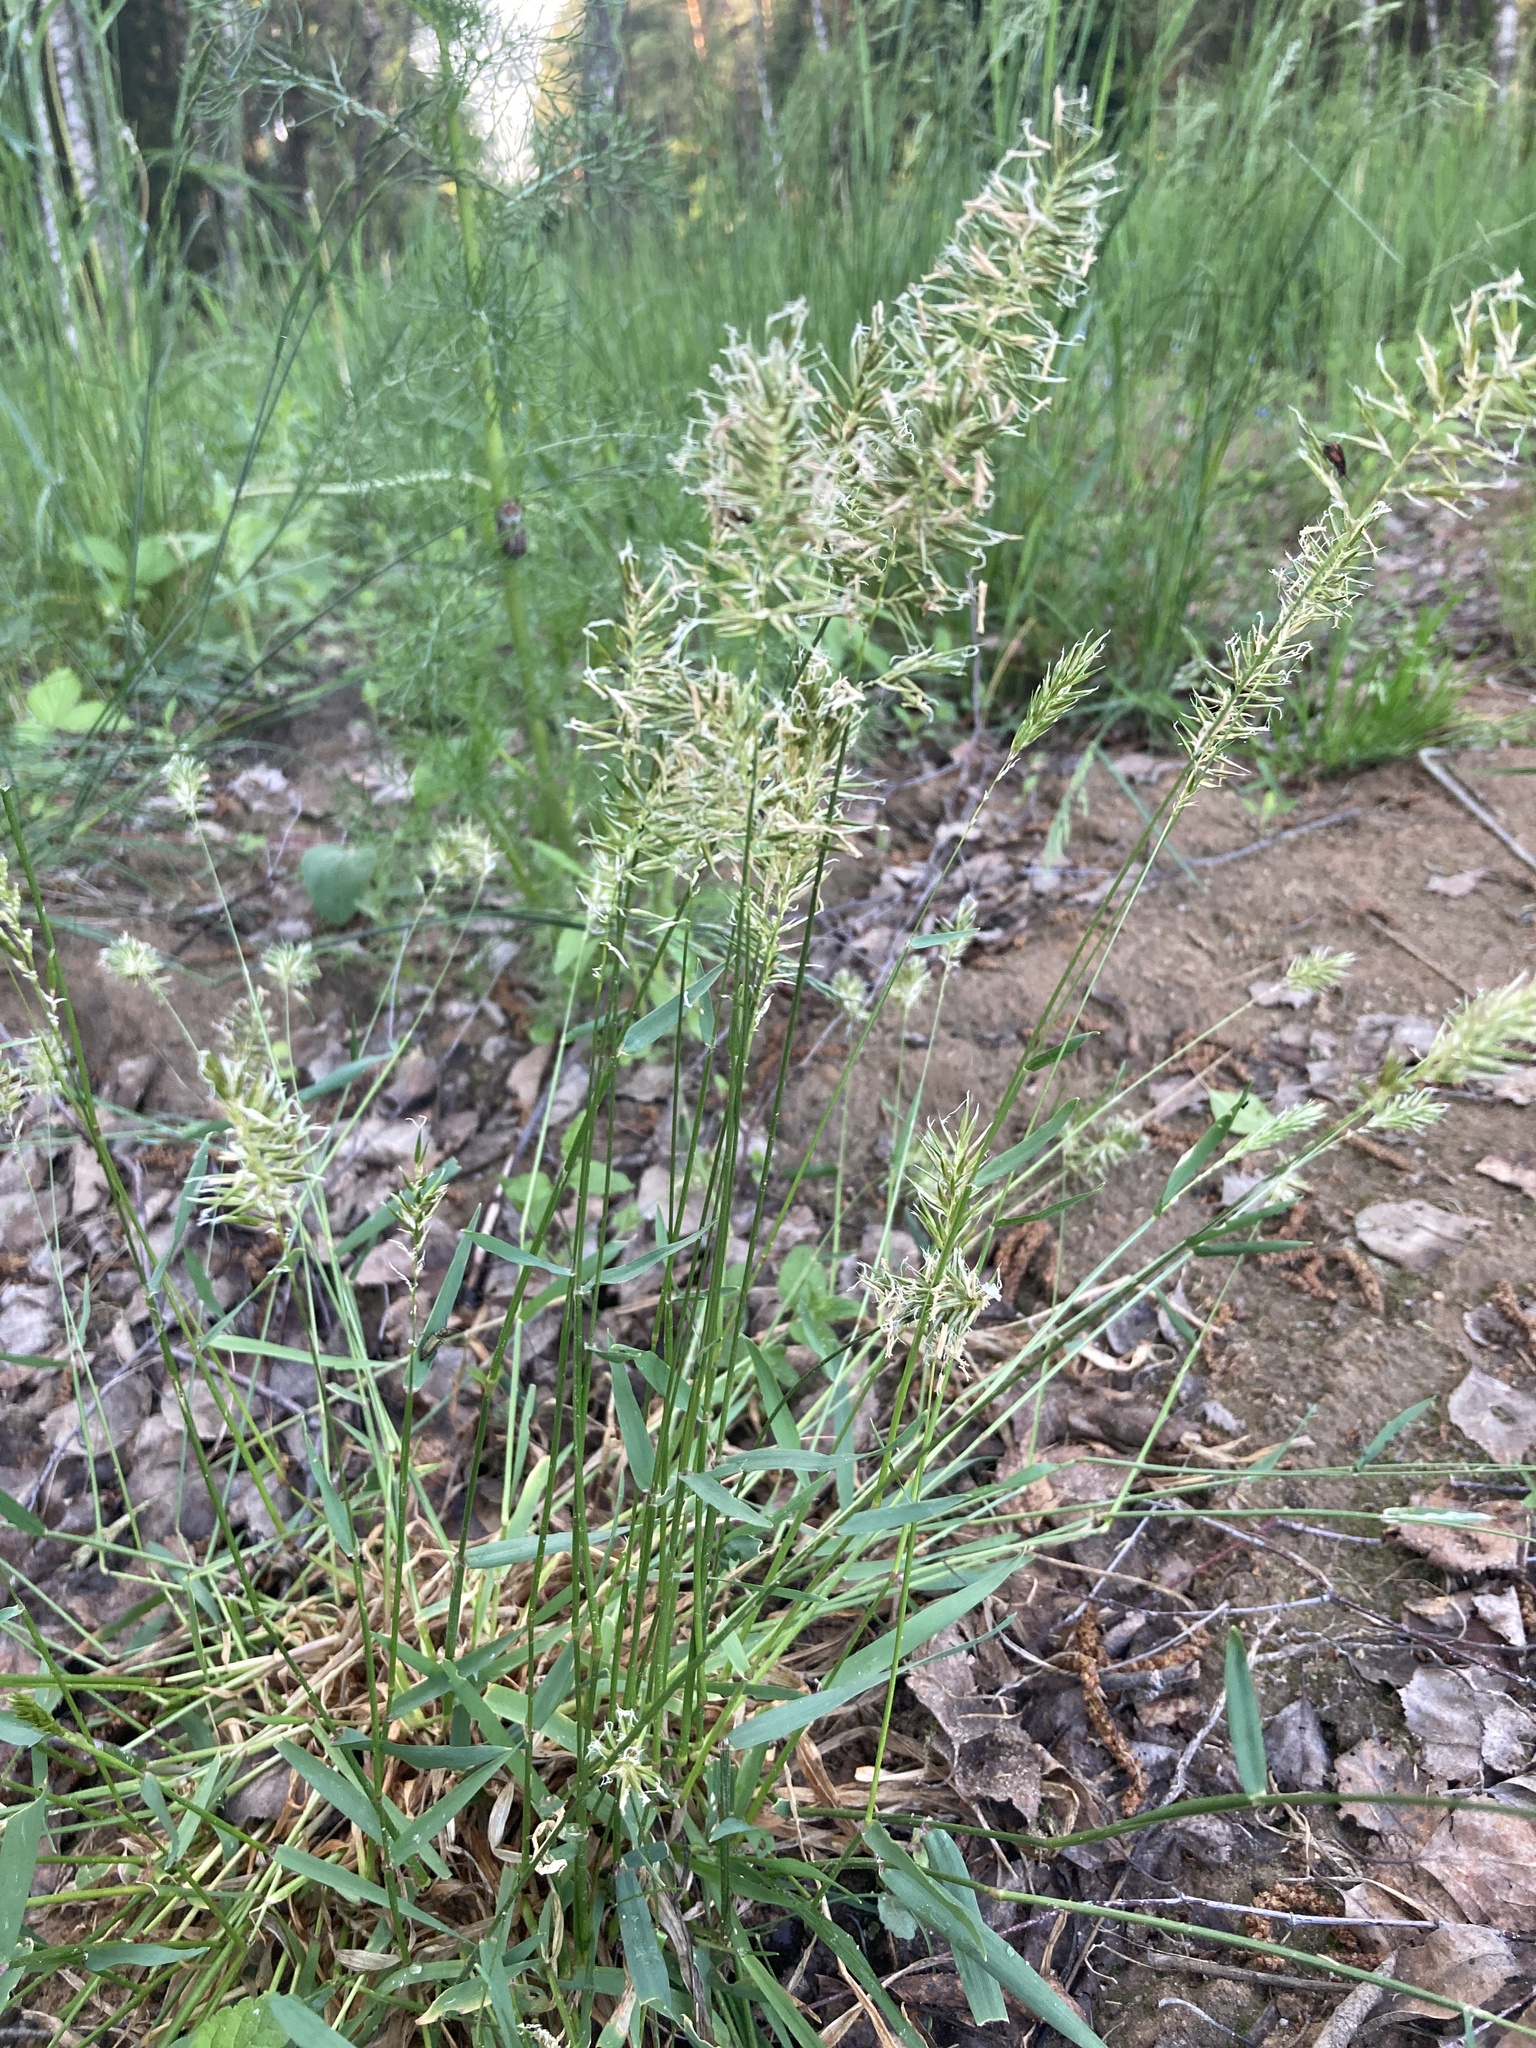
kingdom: Plantae
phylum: Tracheophyta
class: Liliopsida
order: Poales
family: Poaceae
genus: Anthoxanthum
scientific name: Anthoxanthum odoratum
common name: Sweet vernalgrass
